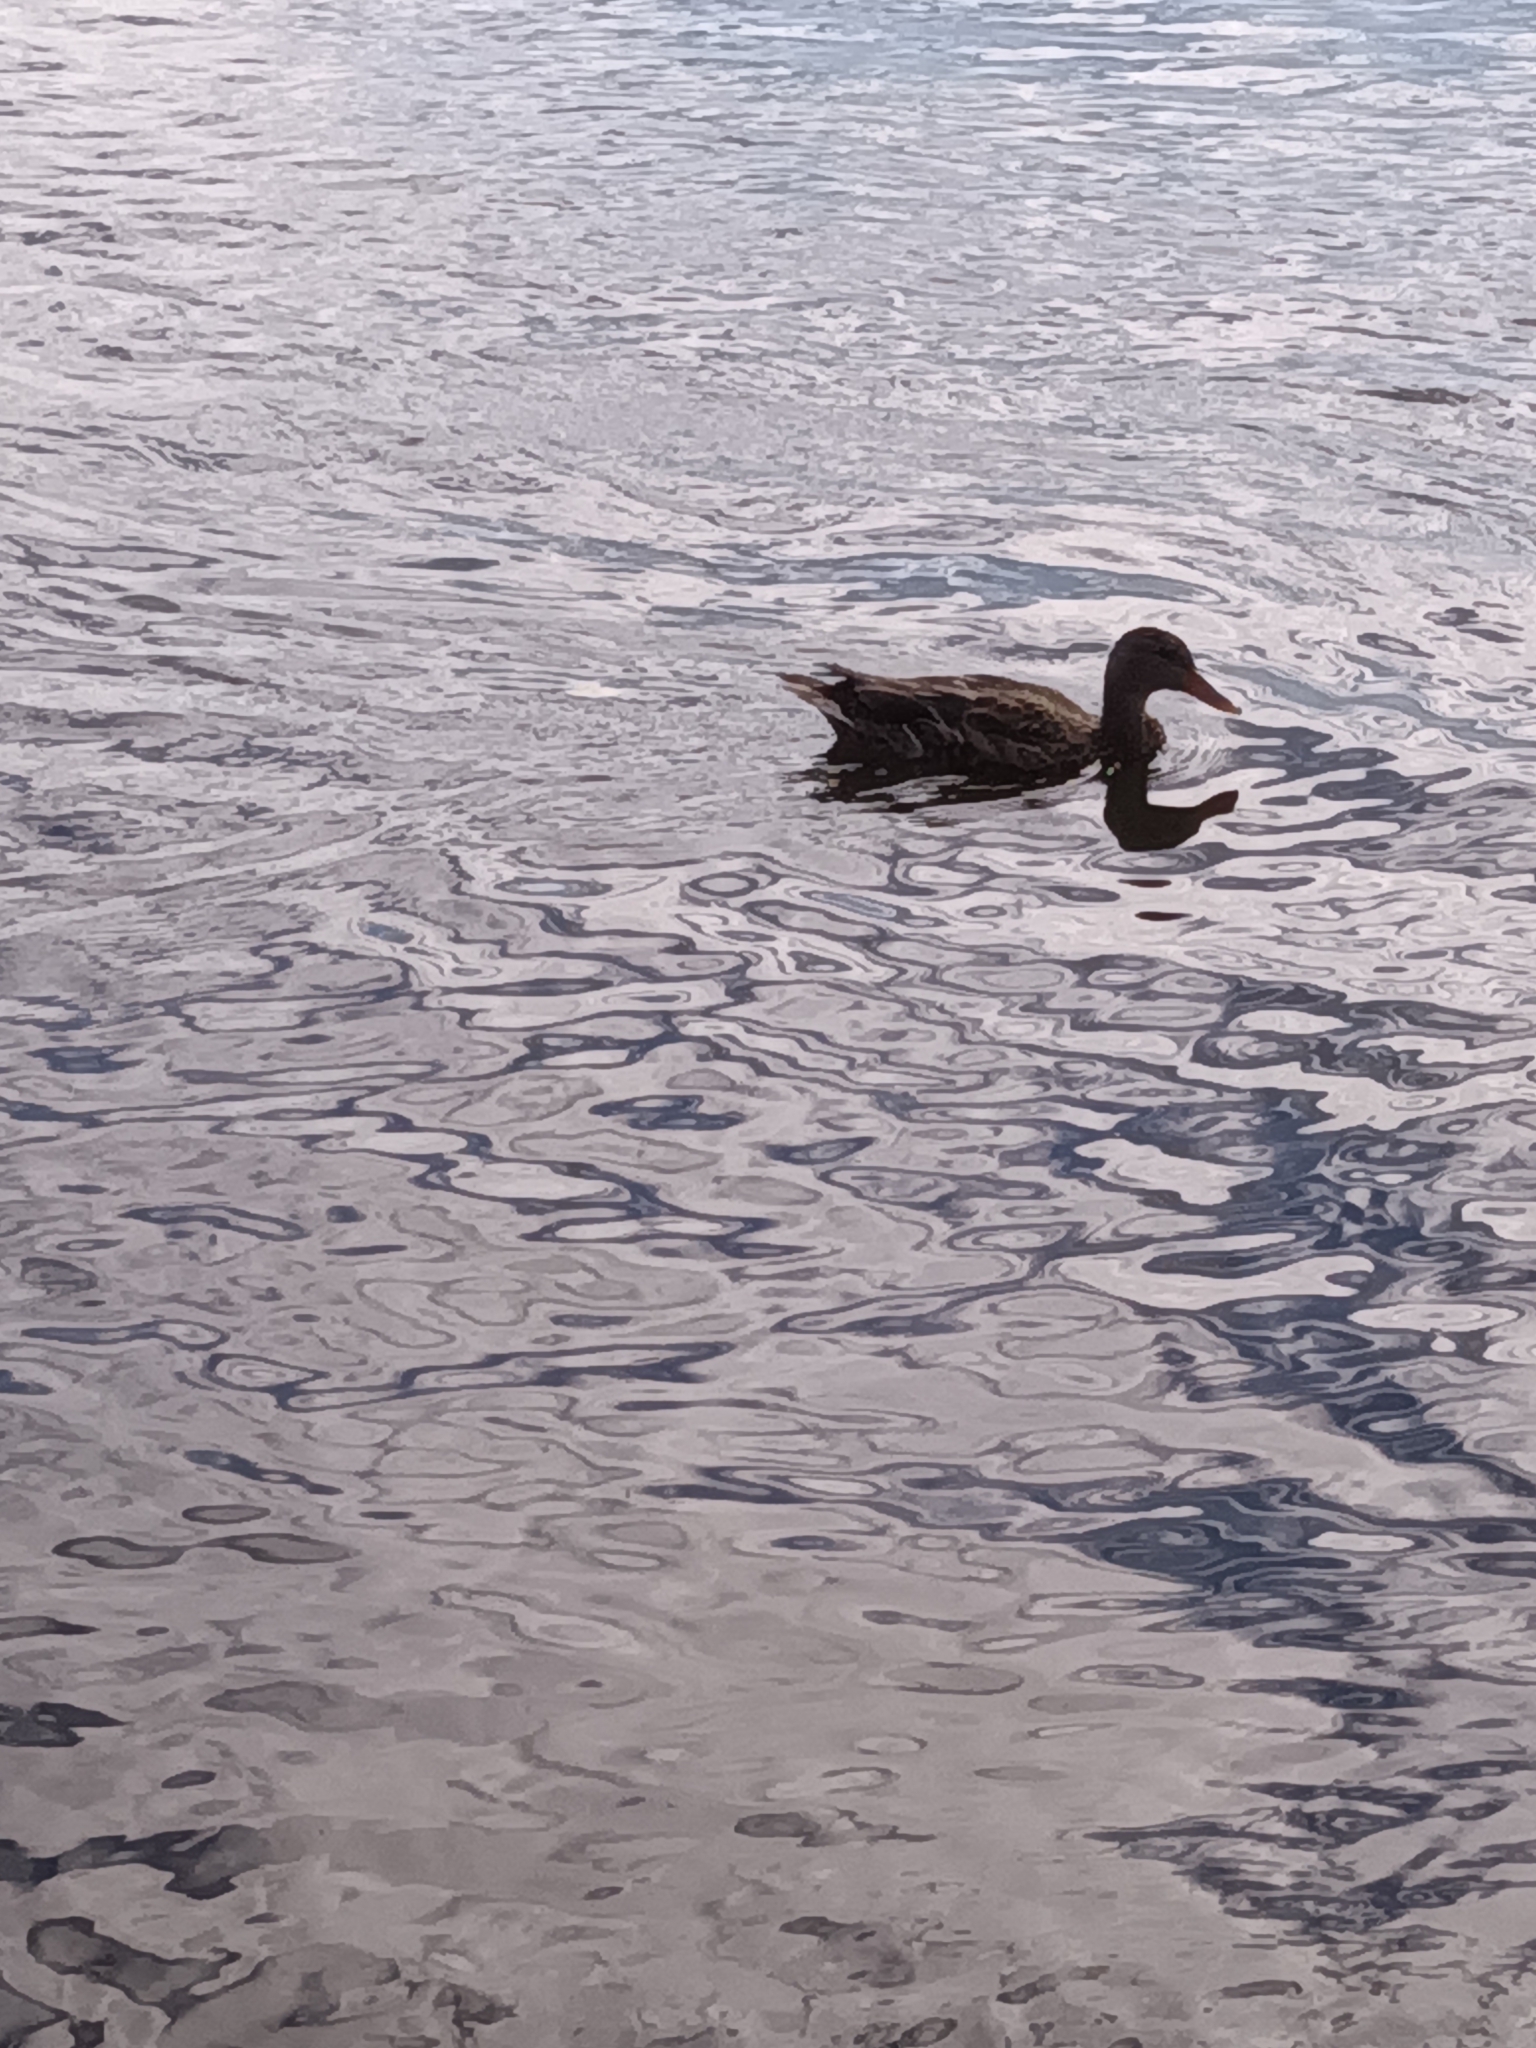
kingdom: Animalia
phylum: Chordata
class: Aves
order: Anseriformes
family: Anatidae
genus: Anas
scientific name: Anas platyrhynchos
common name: Mallard
